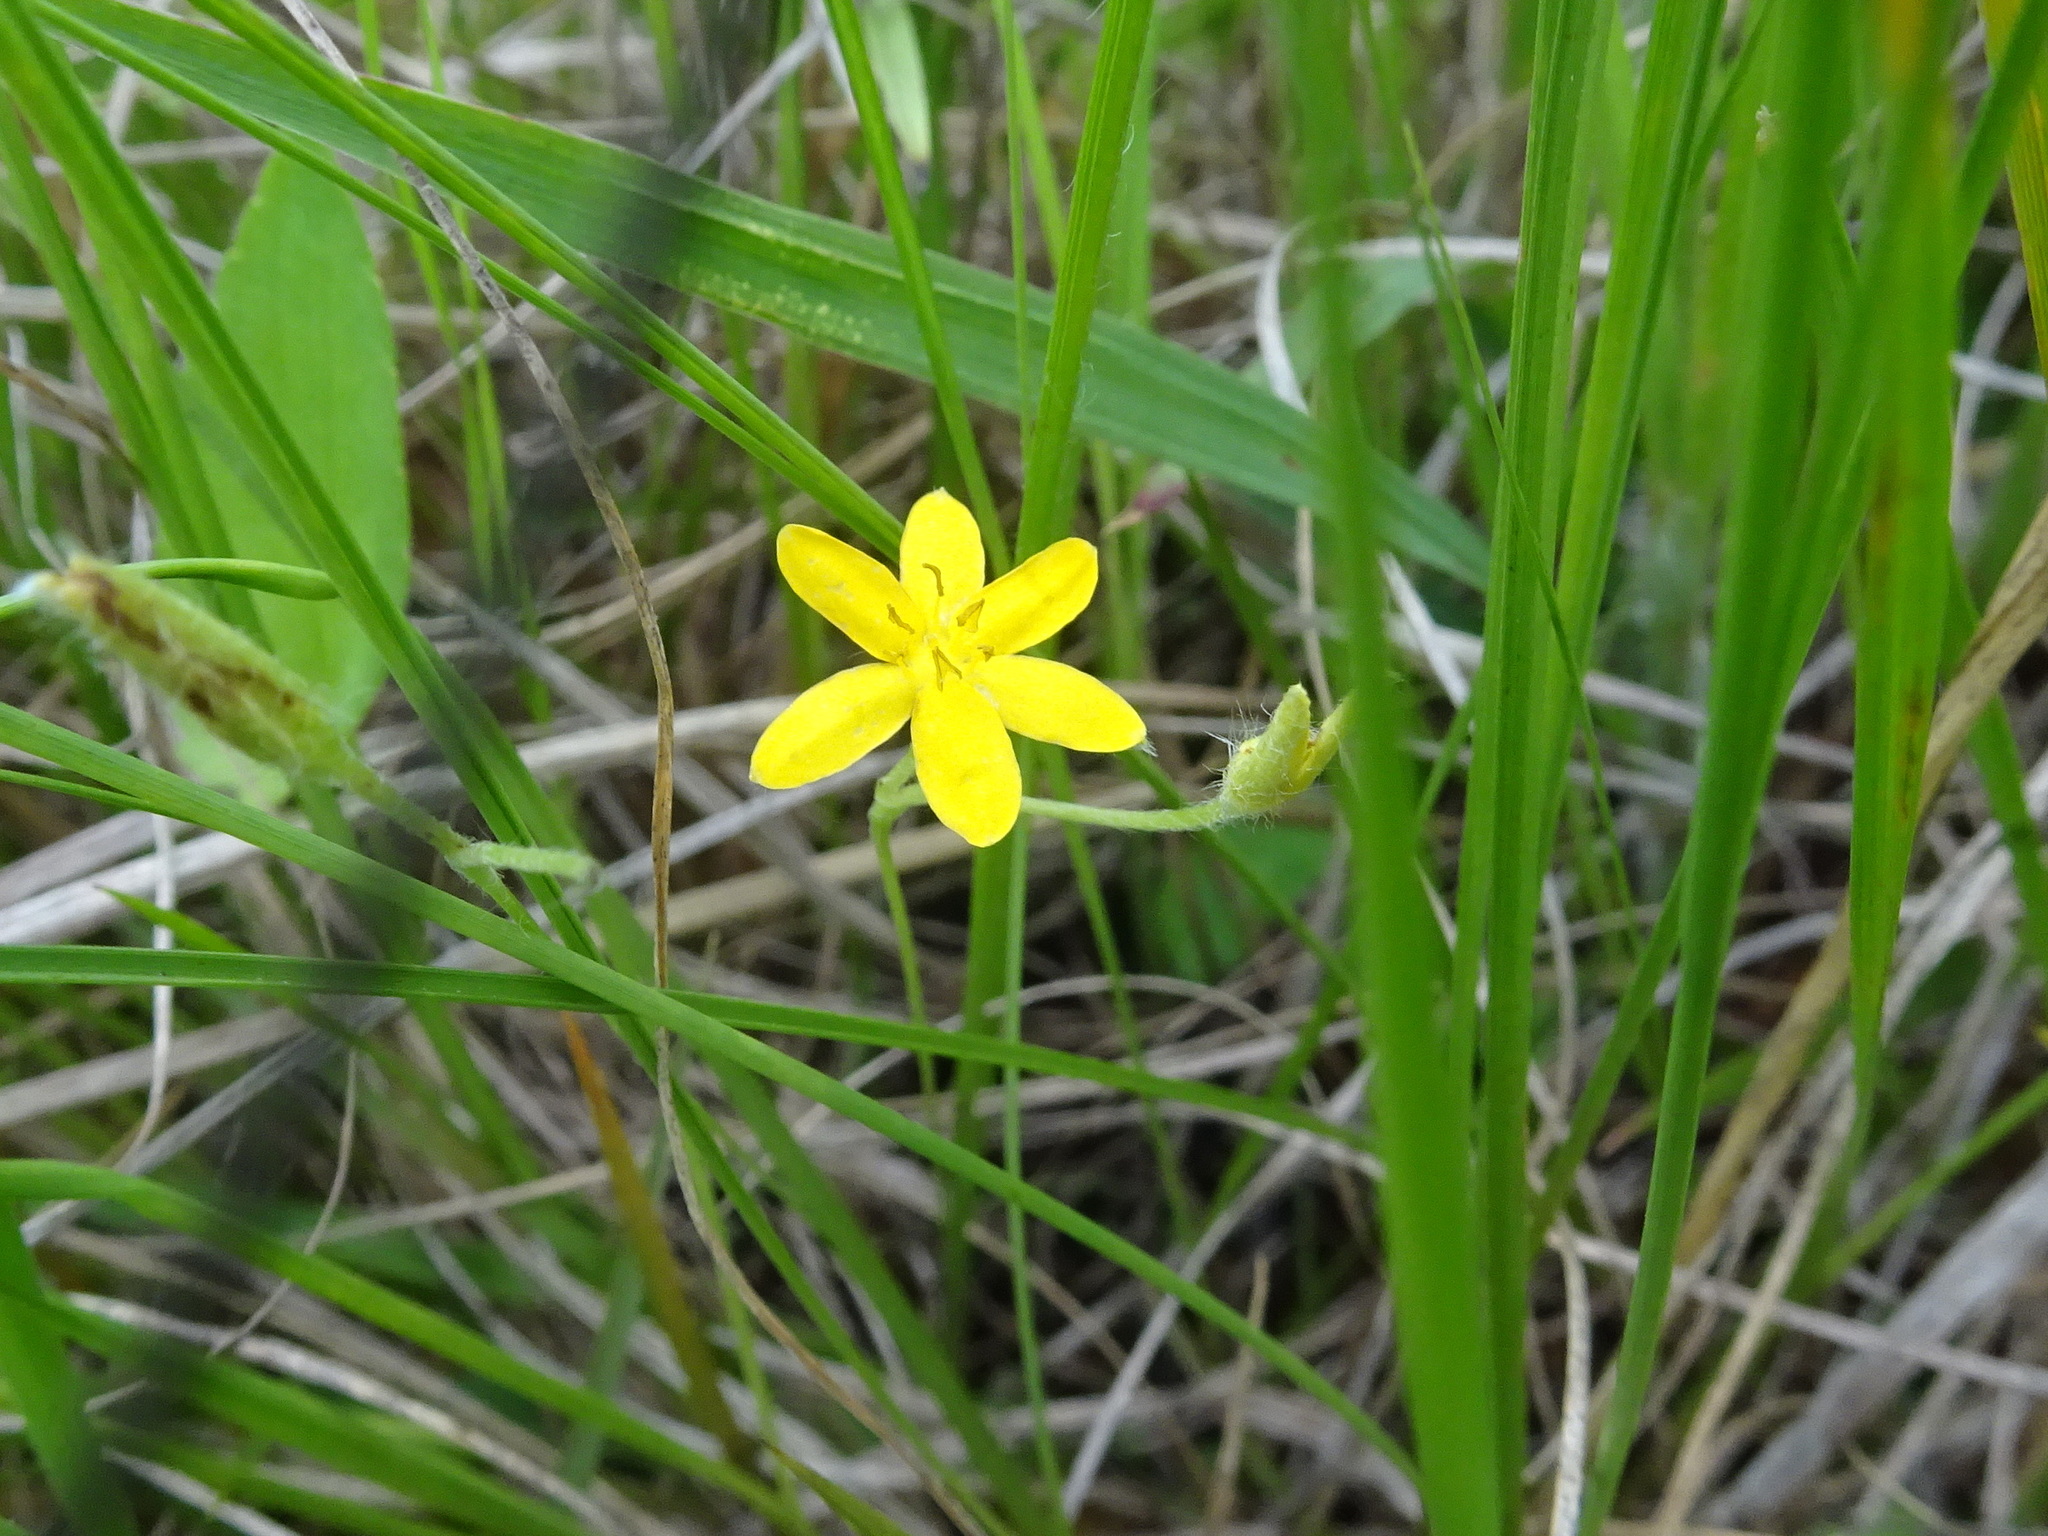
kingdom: Plantae
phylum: Tracheophyta
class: Liliopsida
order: Asparagales
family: Hypoxidaceae
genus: Hypoxis
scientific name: Hypoxis hirsuta
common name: Common goldstar
